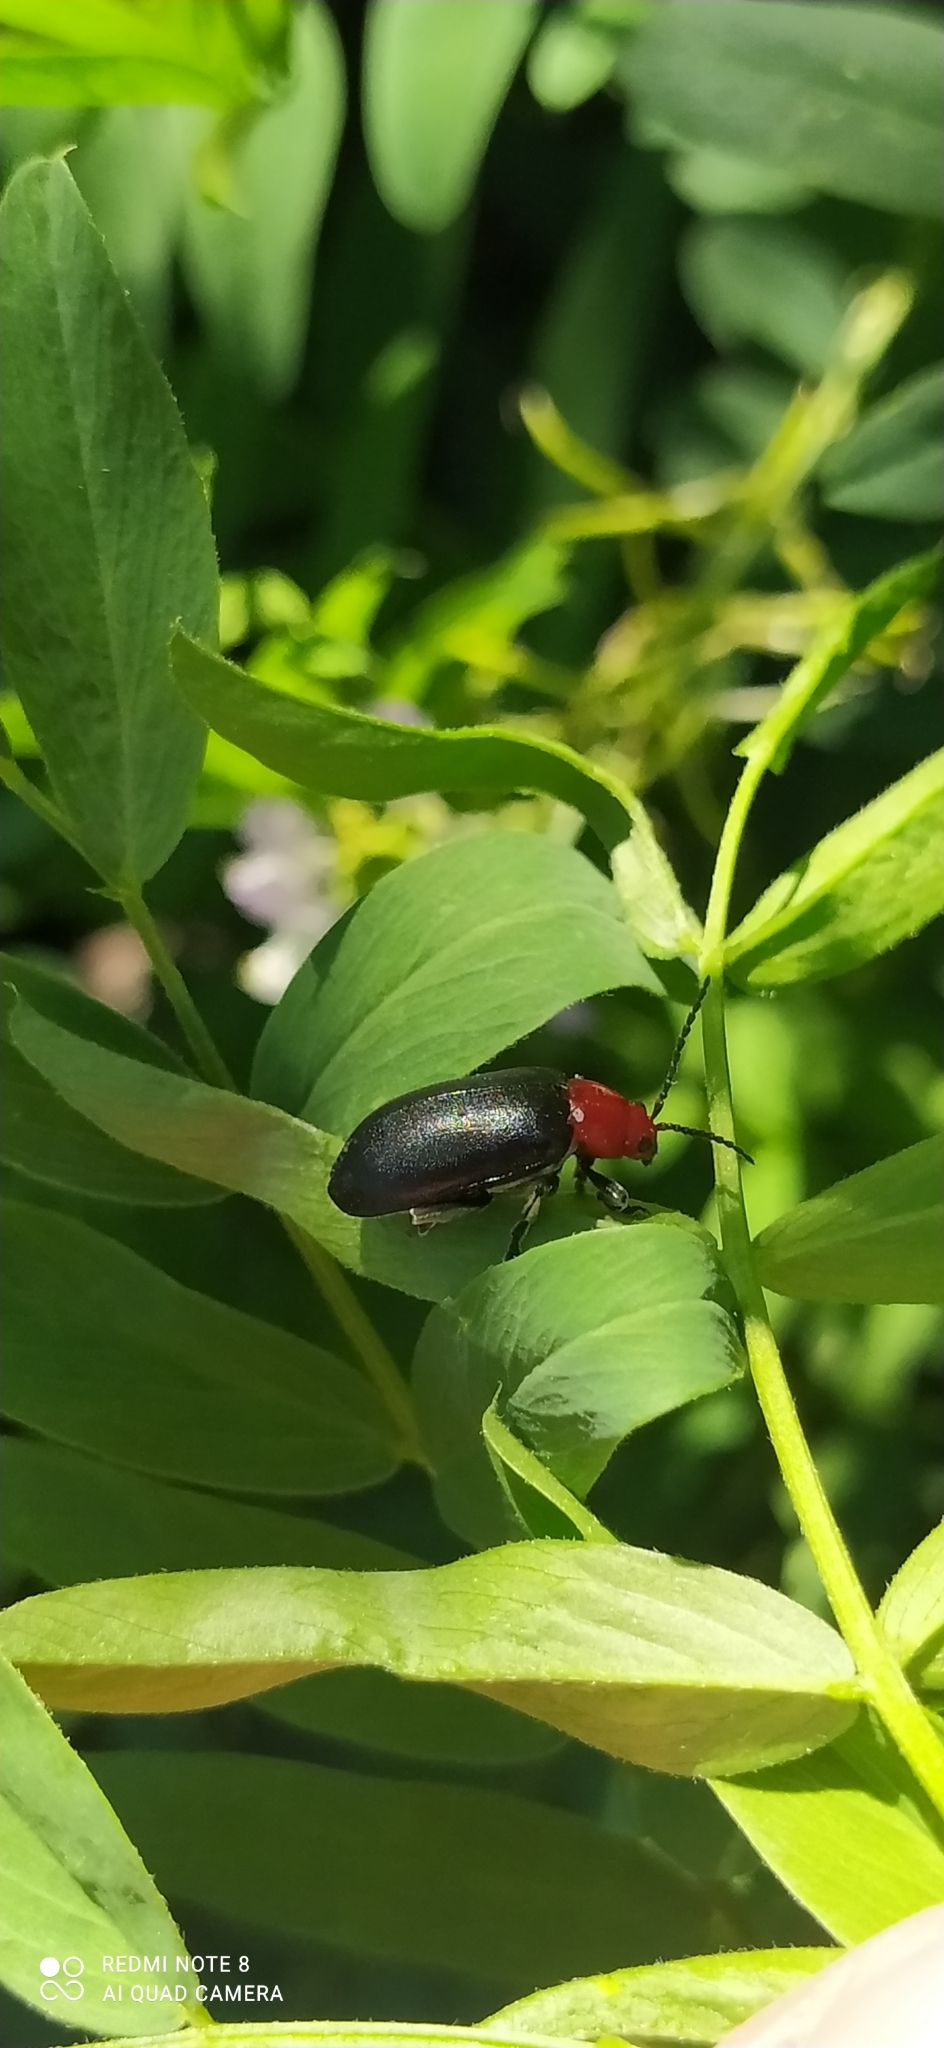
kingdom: Animalia
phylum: Arthropoda
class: Insecta
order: Coleoptera
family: Chrysomelidae
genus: Cacoscelis
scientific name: Cacoscelis
